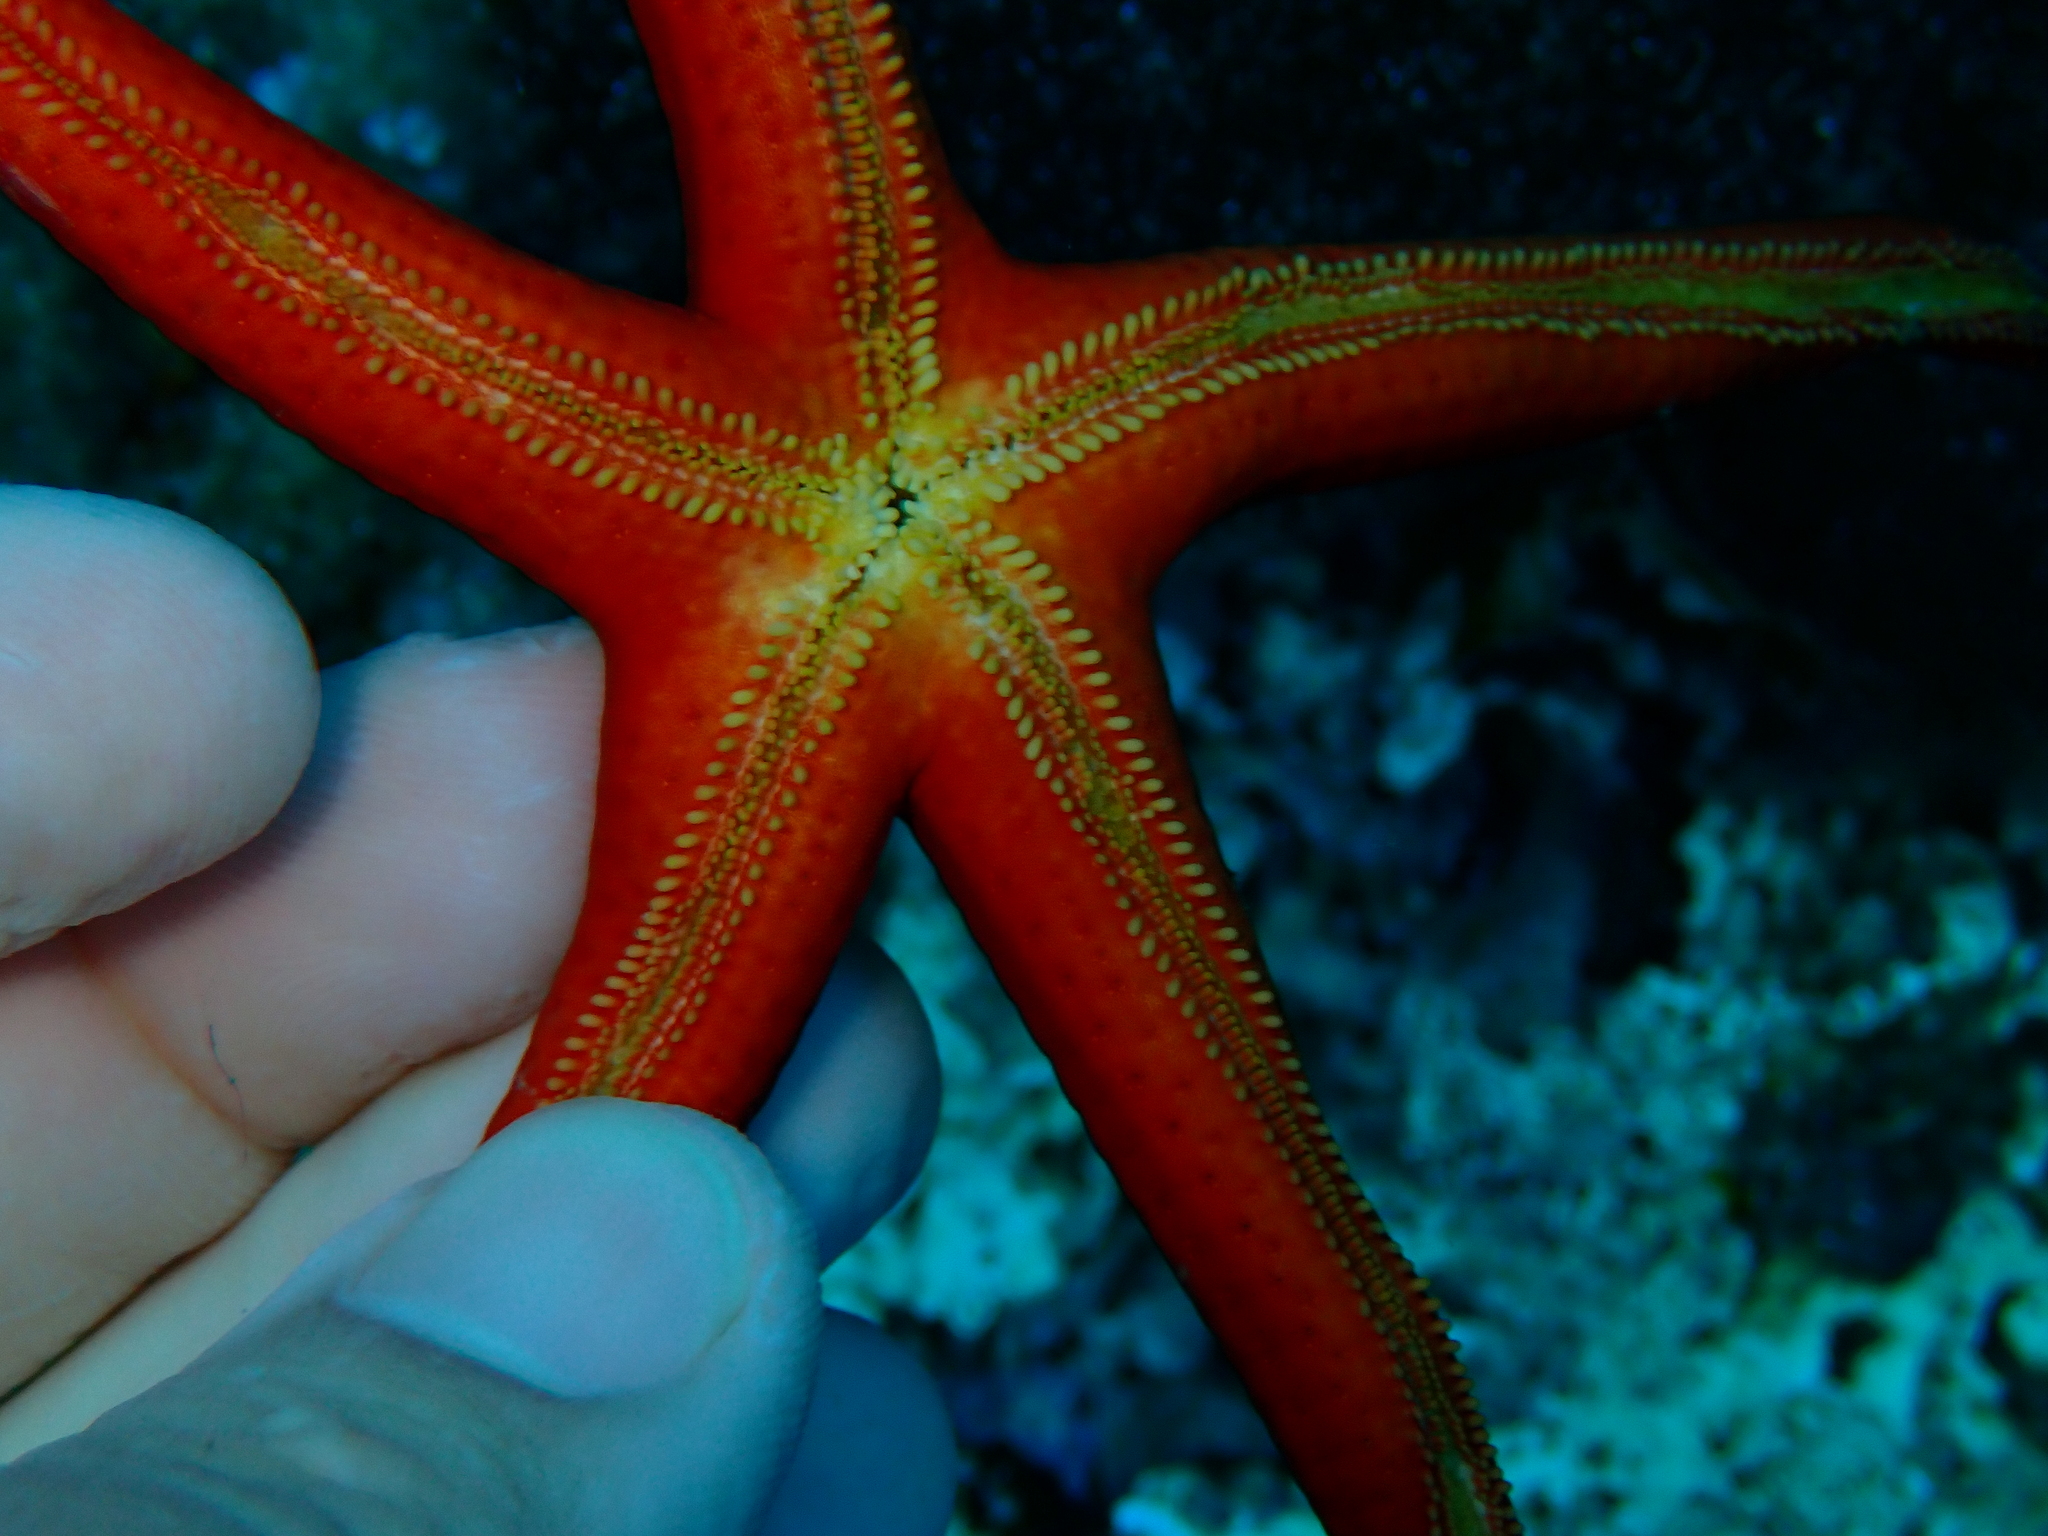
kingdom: Animalia
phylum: Echinodermata
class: Asteroidea
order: Valvatida
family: Ophidiasteridae
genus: Hacelia
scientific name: Hacelia attenuata
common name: Smooth starfish
